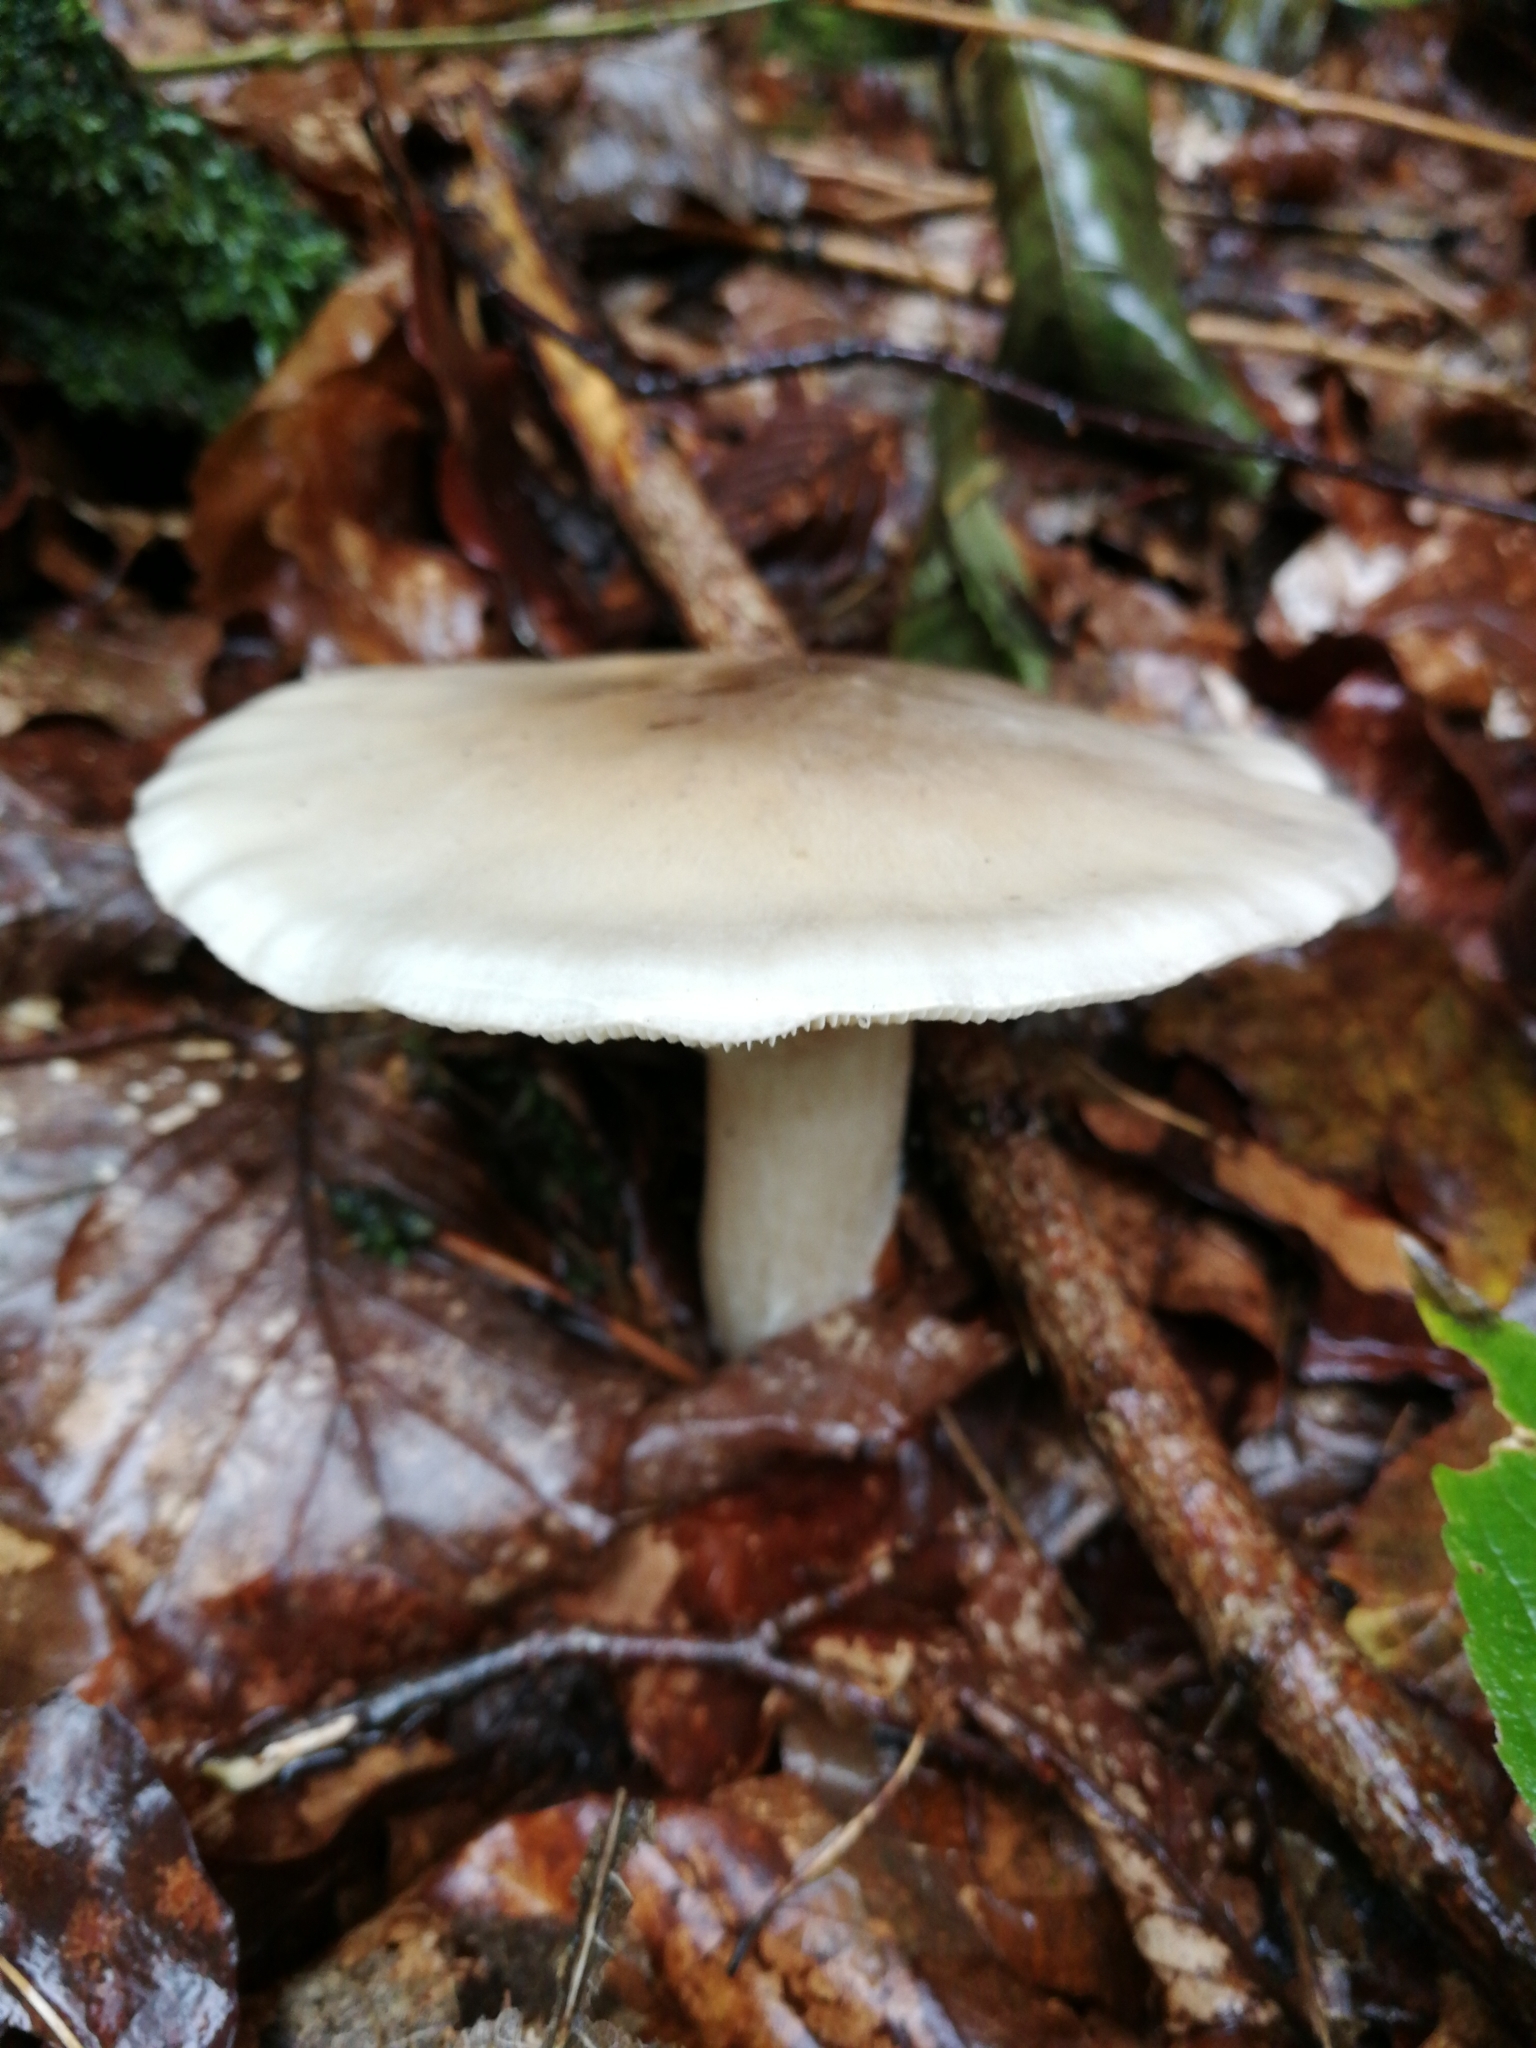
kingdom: Fungi
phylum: Basidiomycota
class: Agaricomycetes
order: Agaricales
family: Tricholomataceae
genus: Clitocybe
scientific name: Clitocybe nebularis
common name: Clouded agaric
